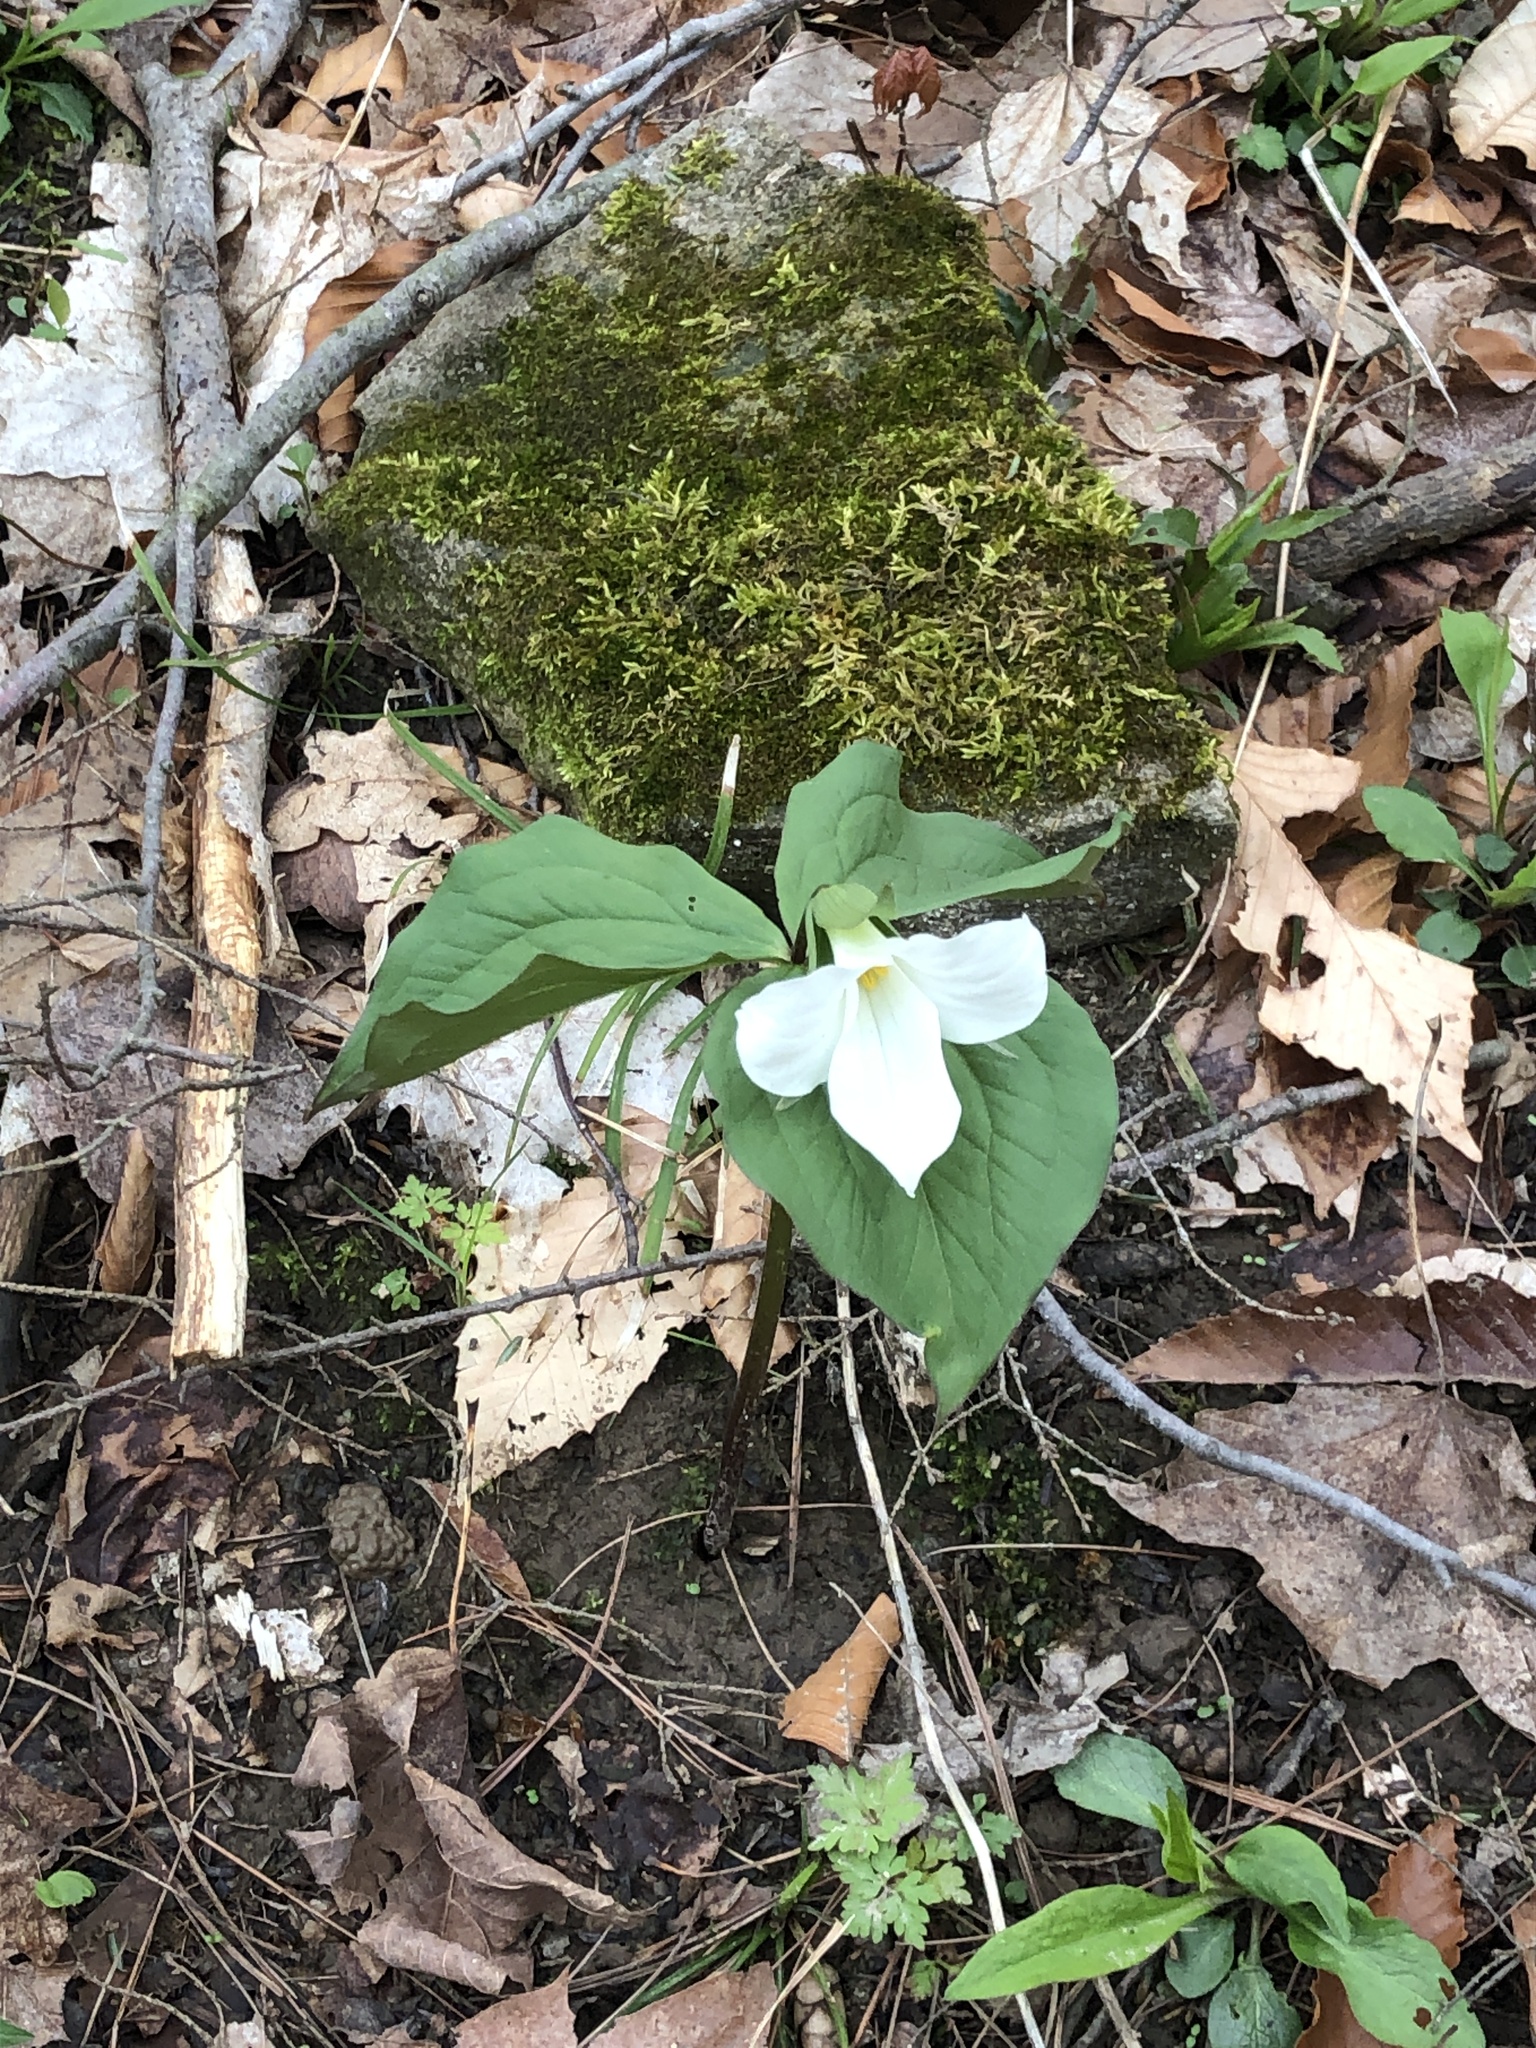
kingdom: Plantae
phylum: Tracheophyta
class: Liliopsida
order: Liliales
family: Melanthiaceae
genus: Trillium
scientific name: Trillium grandiflorum
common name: Great white trillium
